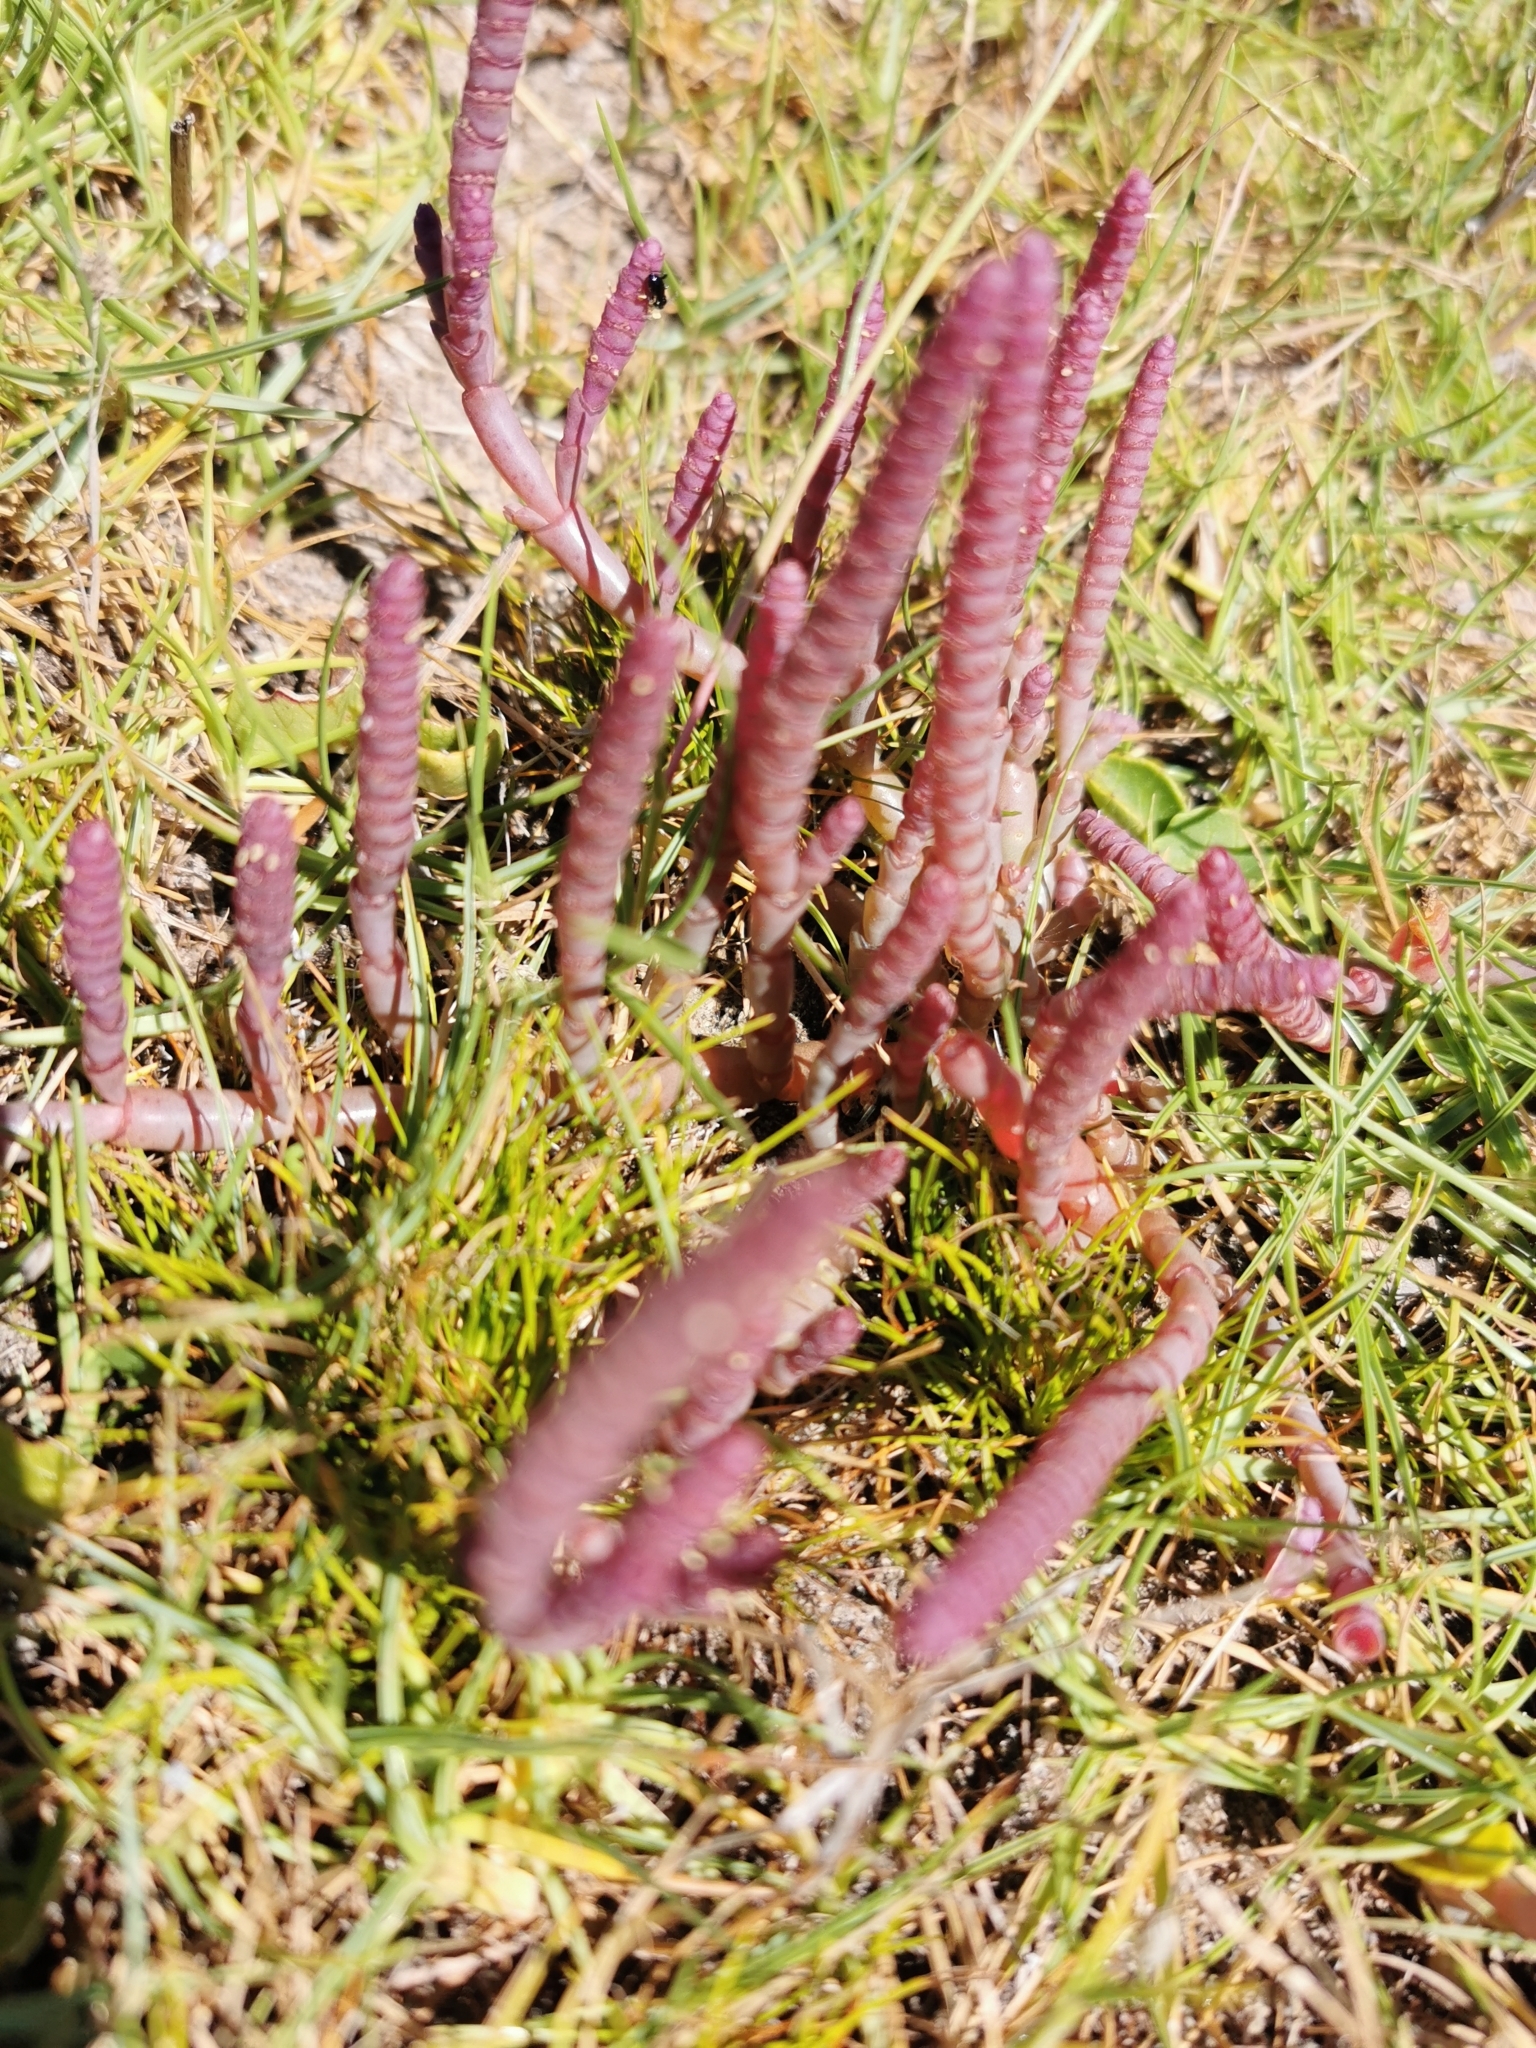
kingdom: Plantae
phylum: Tracheophyta
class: Magnoliopsida
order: Caryophyllales
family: Amaranthaceae
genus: Salicornia
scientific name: Salicornia natalensis
